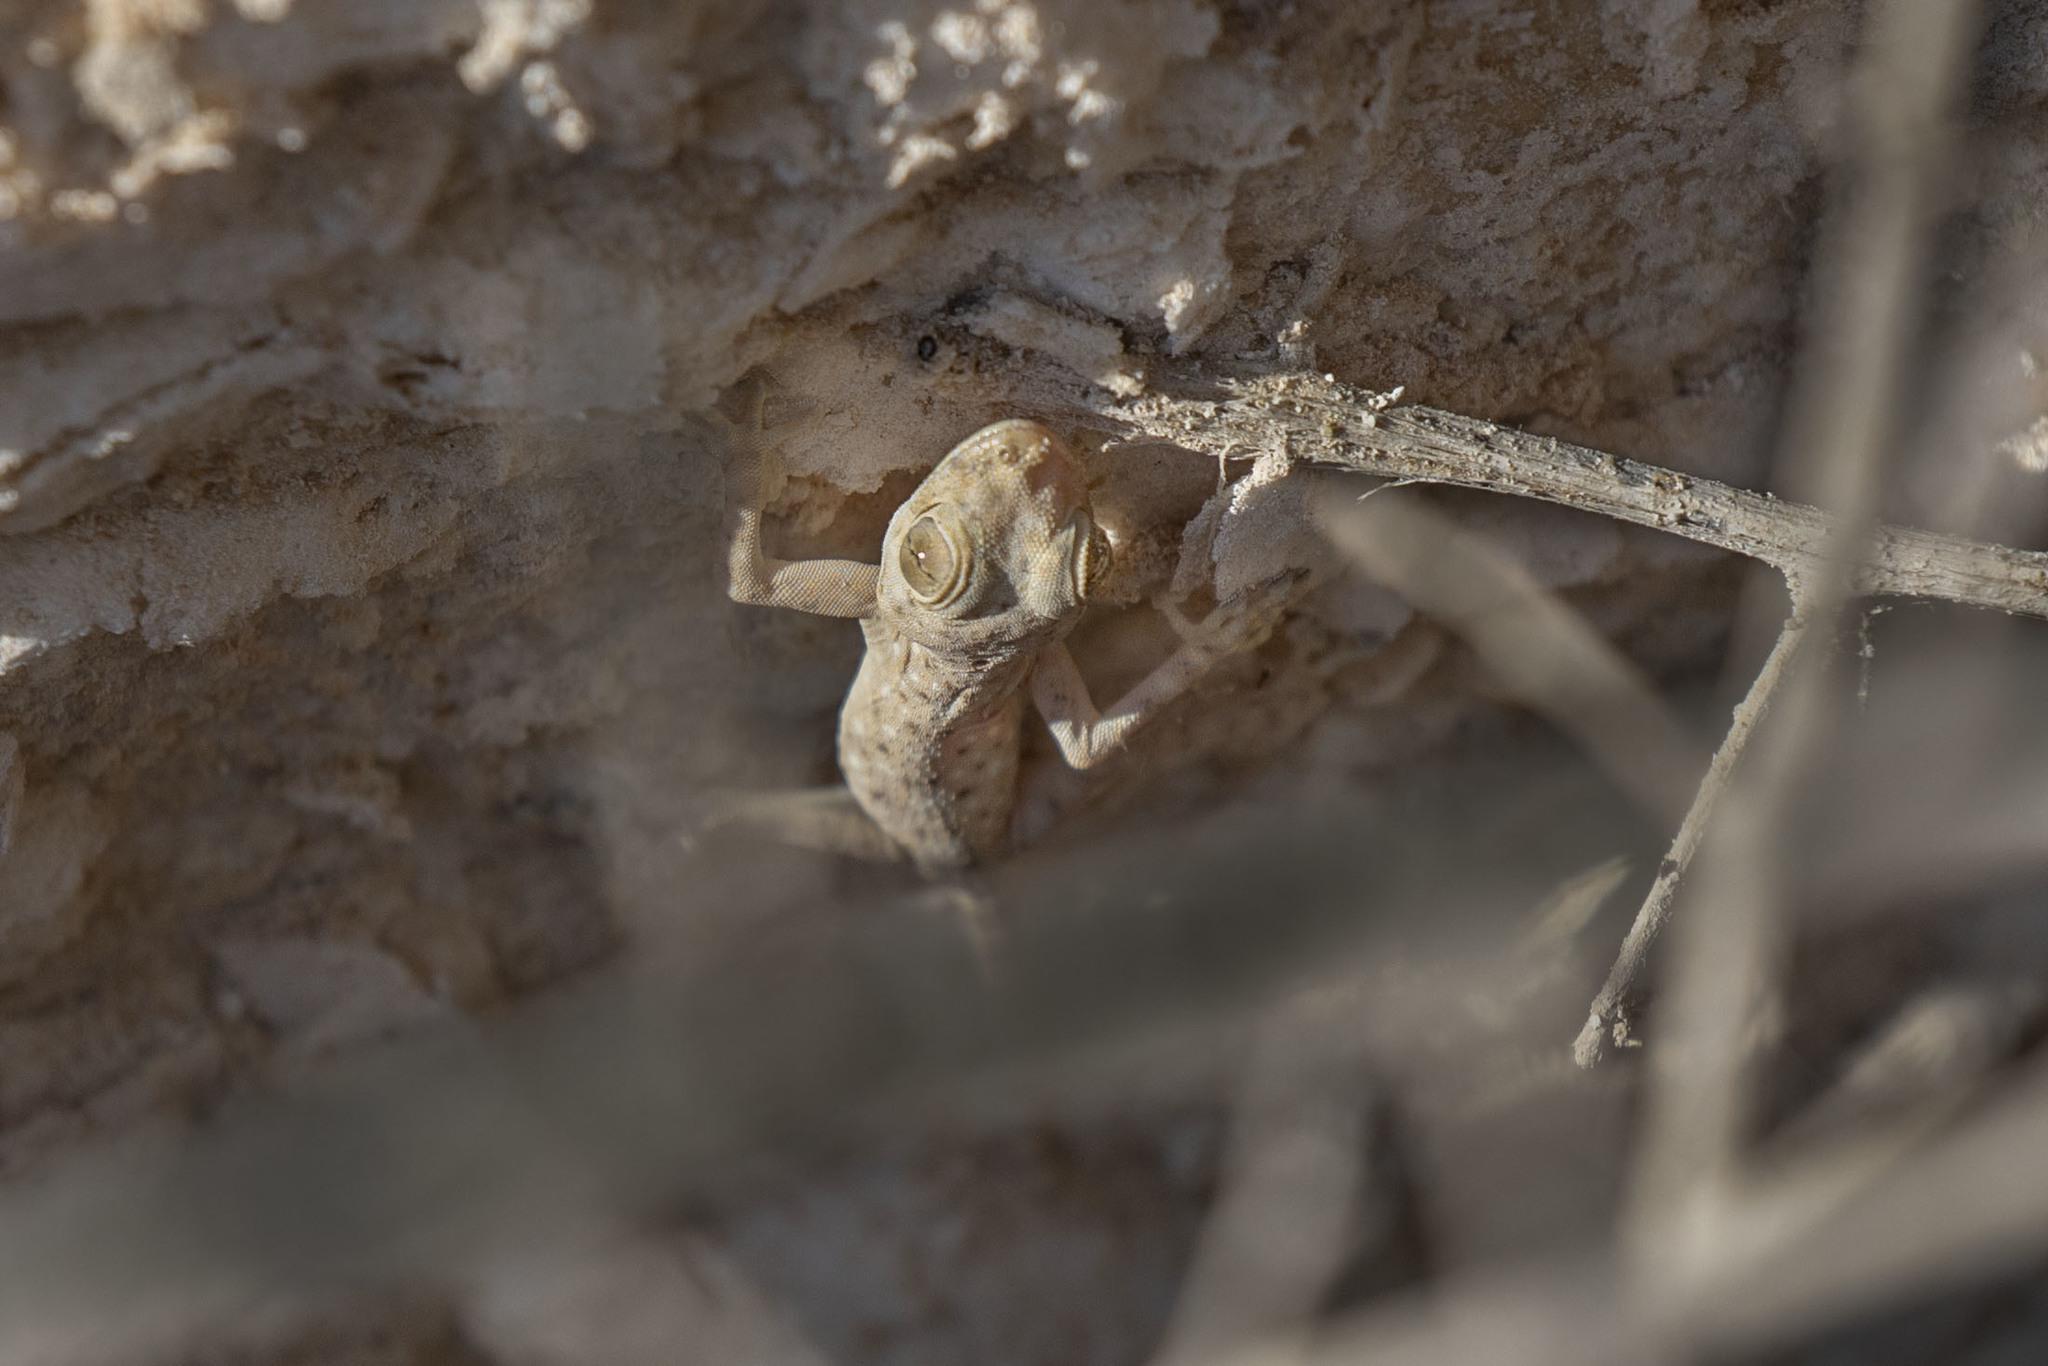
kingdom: Animalia
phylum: Chordata
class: Squamata
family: Phyllodactylidae
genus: Ptyodactylus
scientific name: Ptyodactylus guttatus
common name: Sinai fan-fingered gecko
